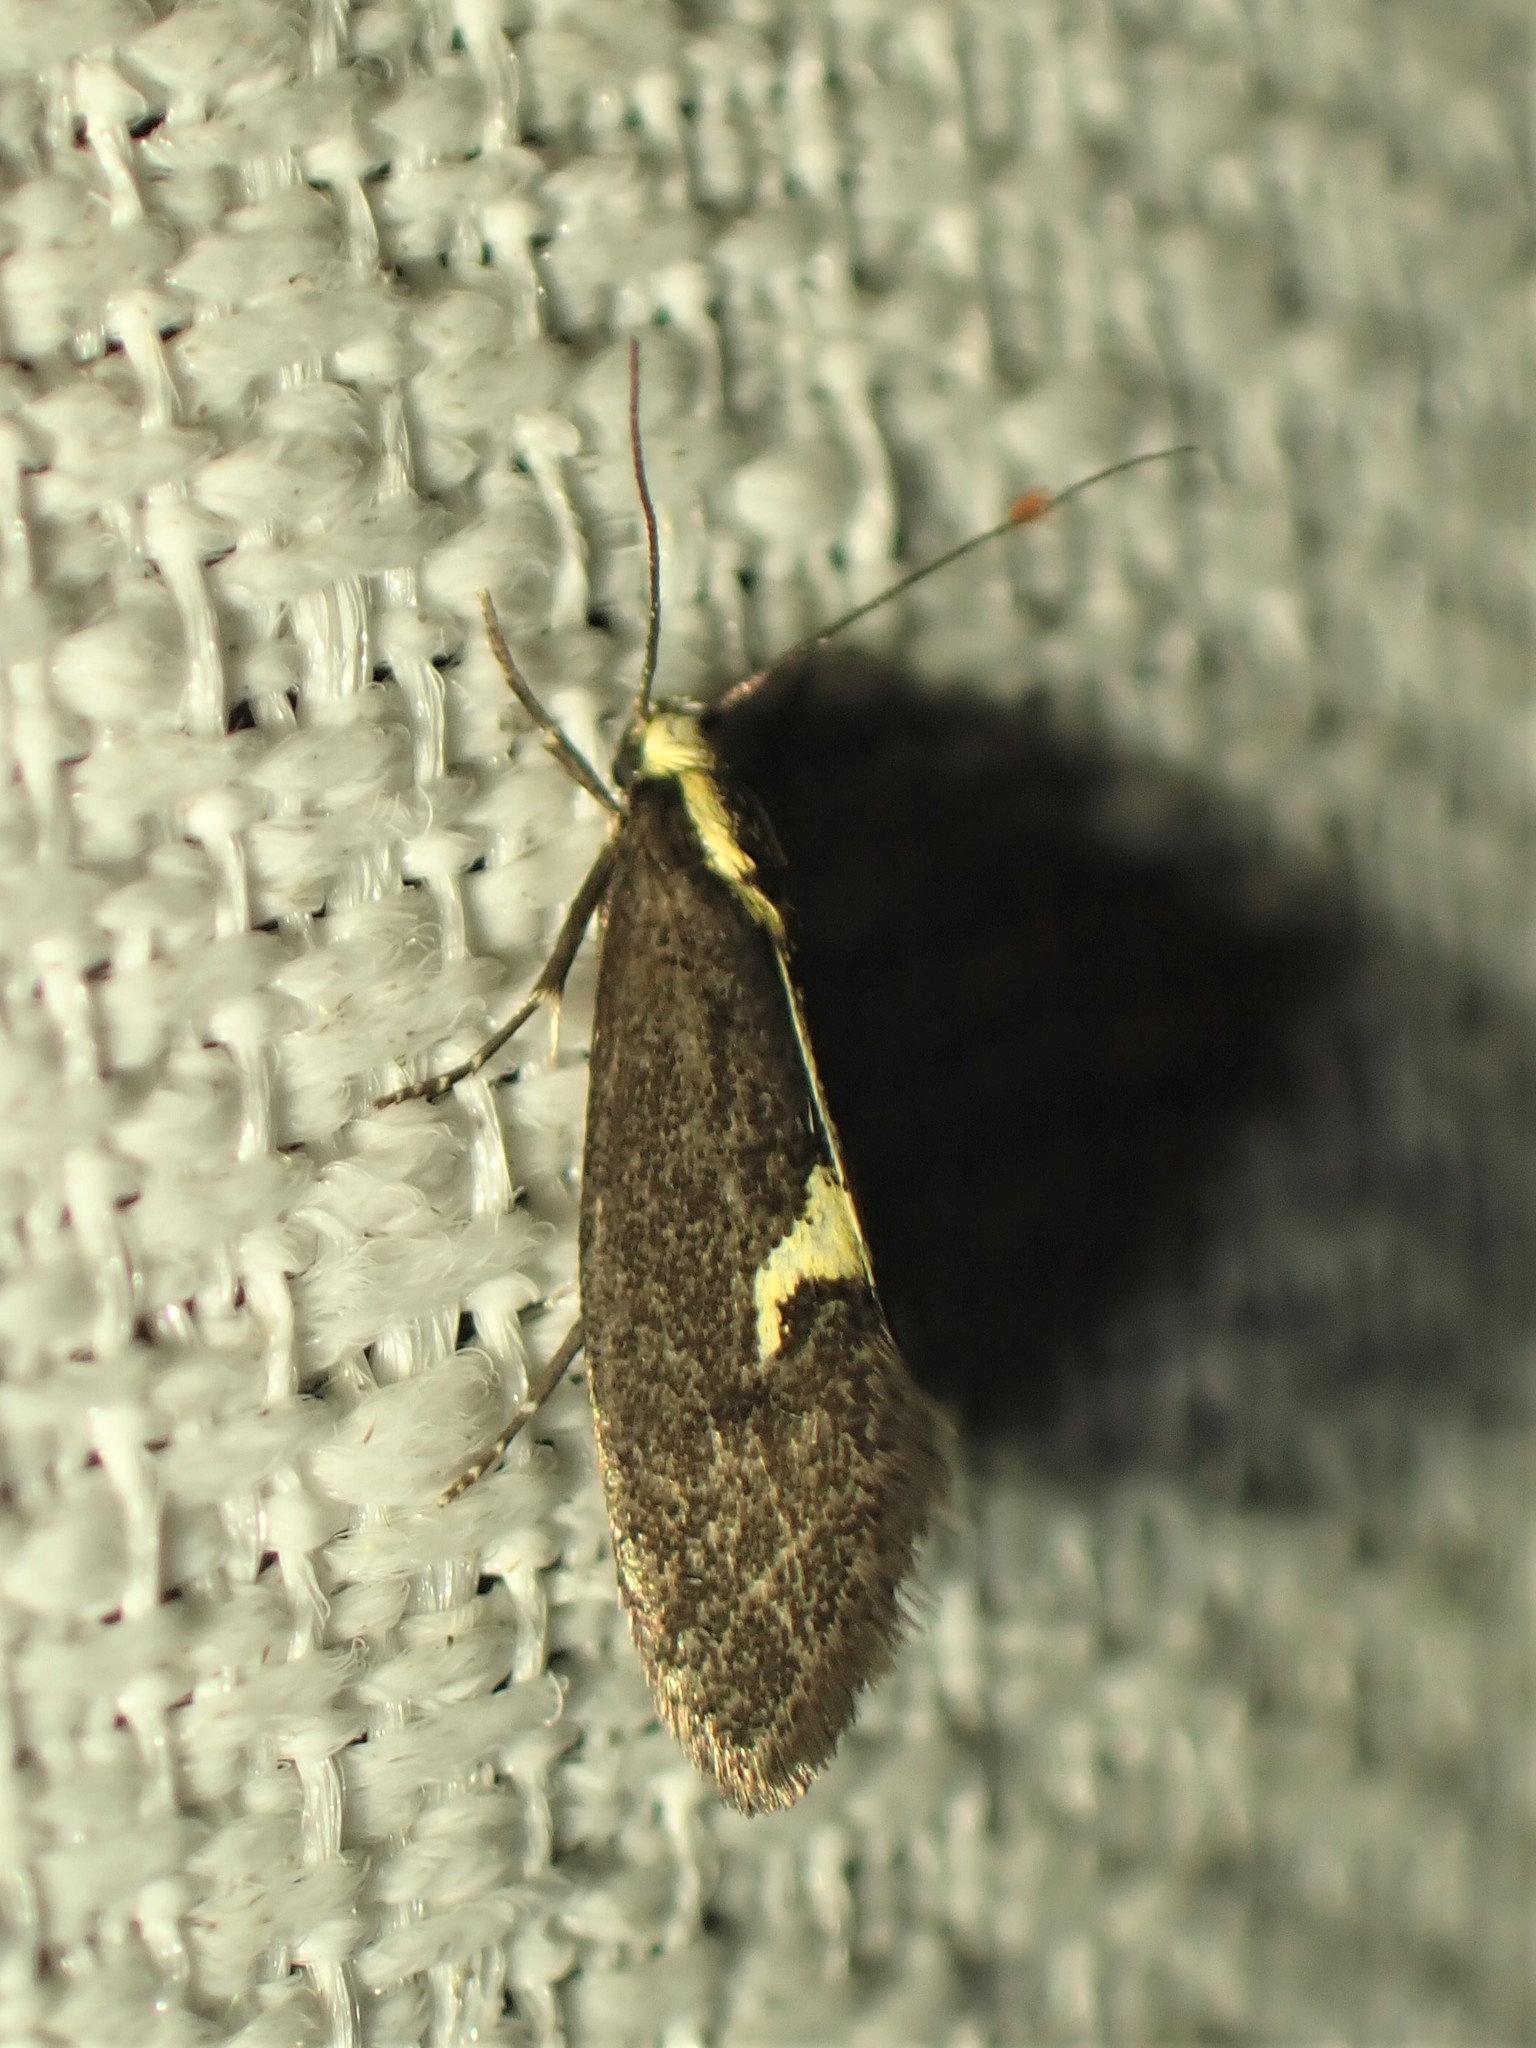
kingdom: Animalia
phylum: Arthropoda
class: Insecta
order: Lepidoptera
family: Oecophoridae
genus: Polix
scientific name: Polix coloradella
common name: Skunk moth
